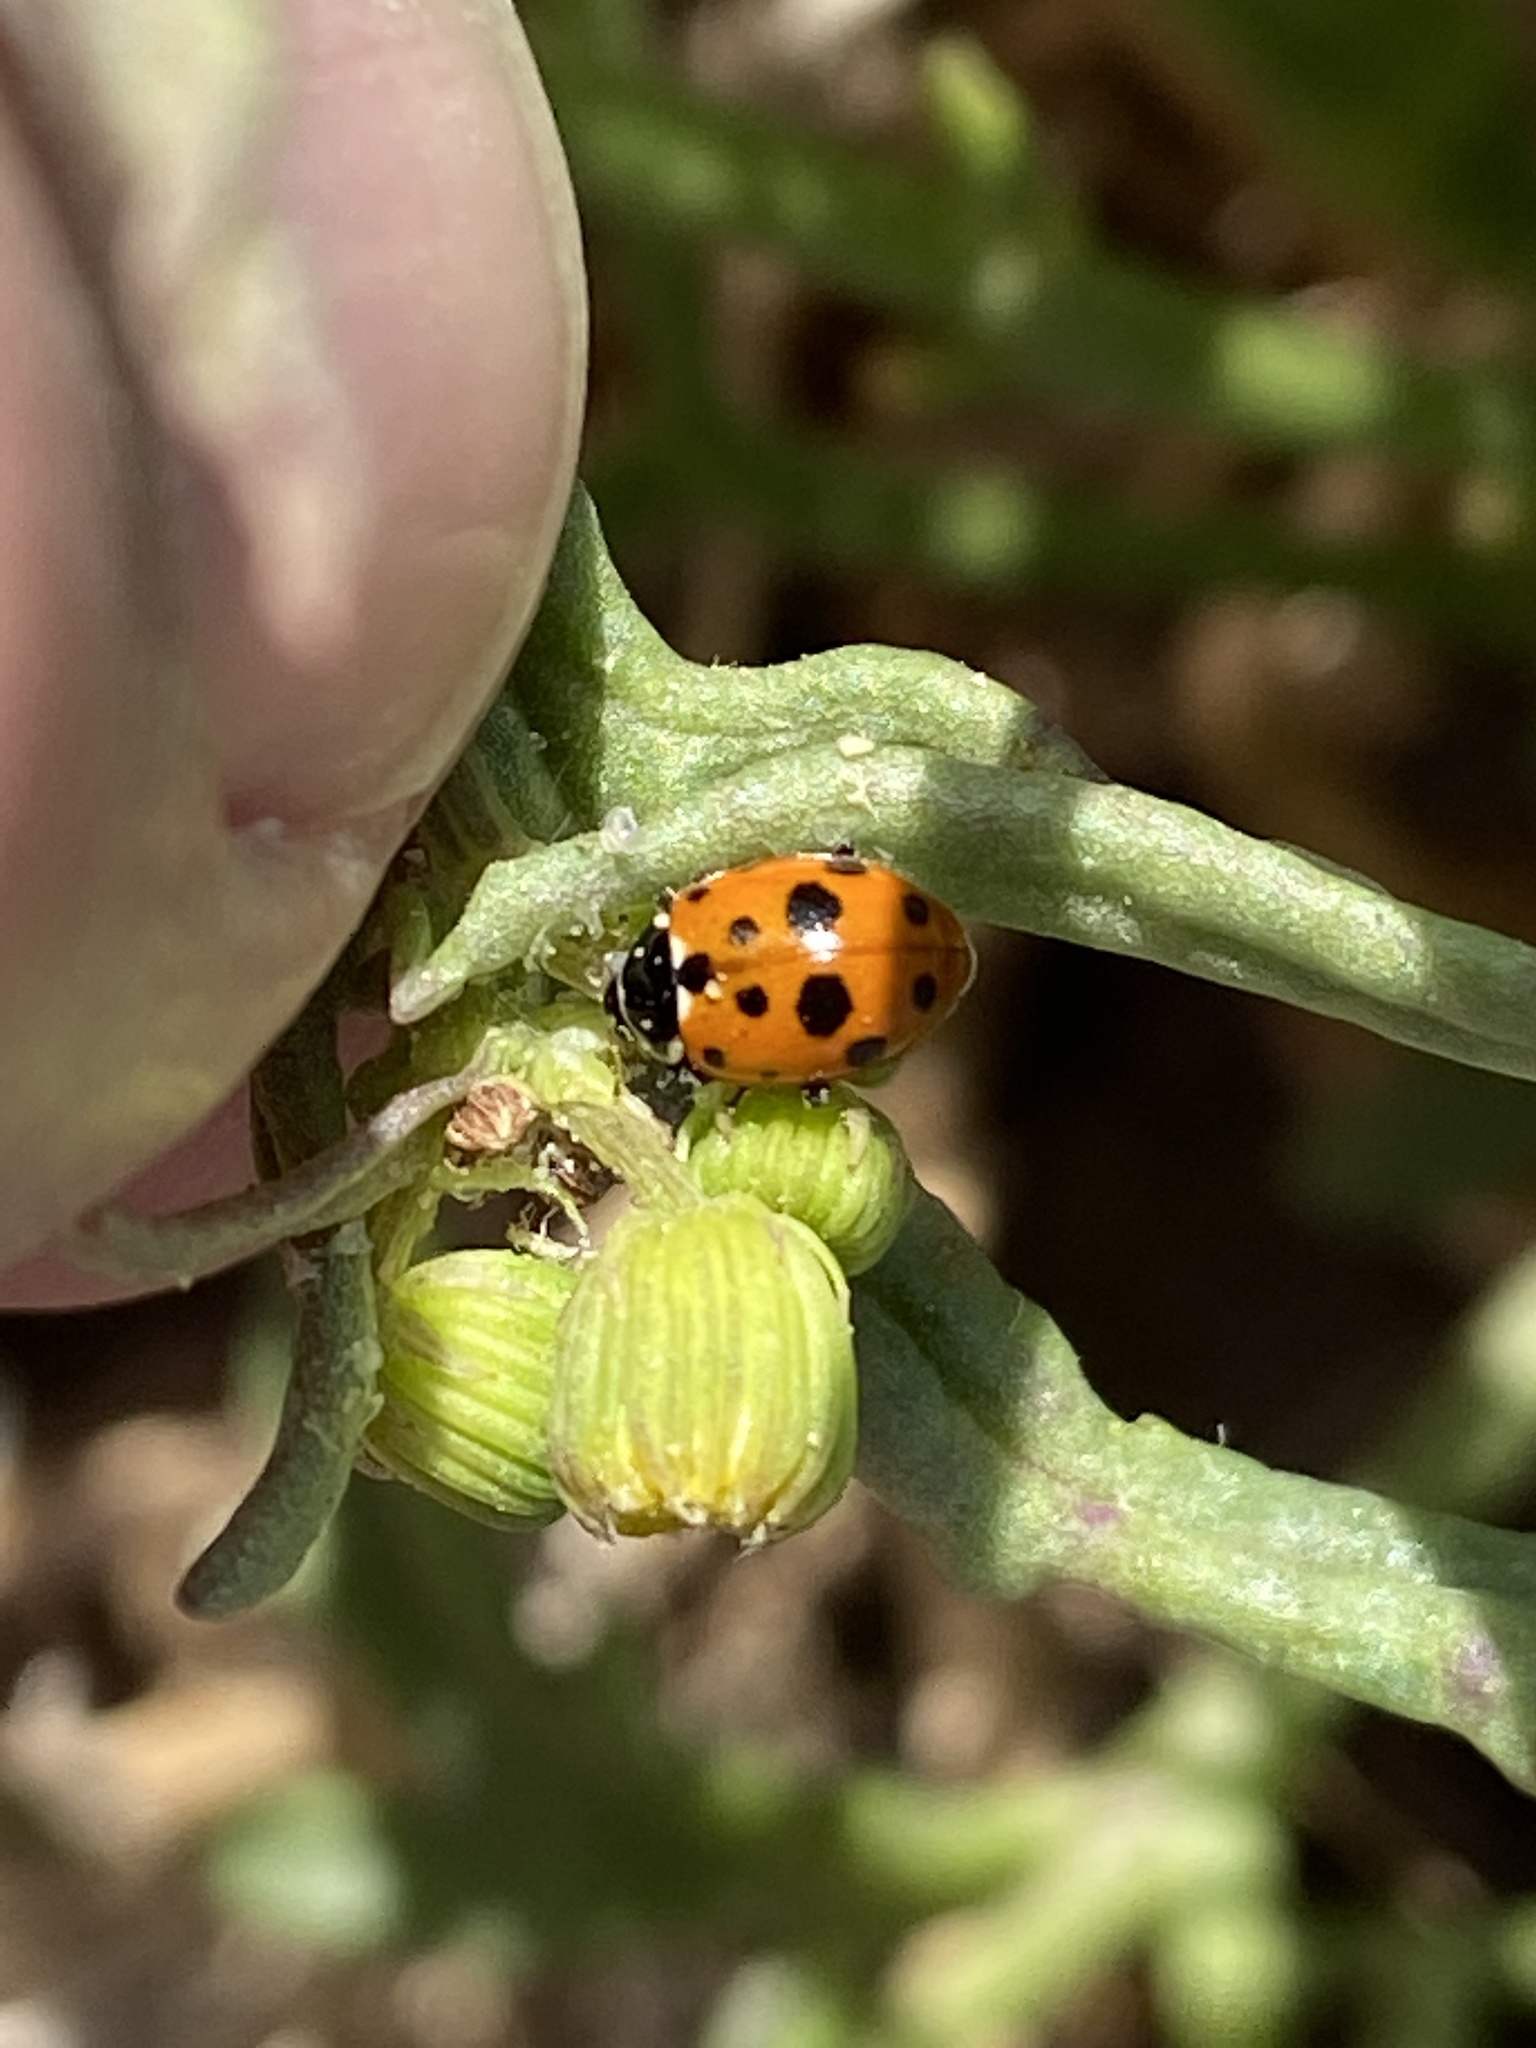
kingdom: Animalia
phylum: Arthropoda
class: Insecta
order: Coleoptera
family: Coccinellidae
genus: Hippodamia
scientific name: Hippodamia variegata
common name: Ladybird beetle
